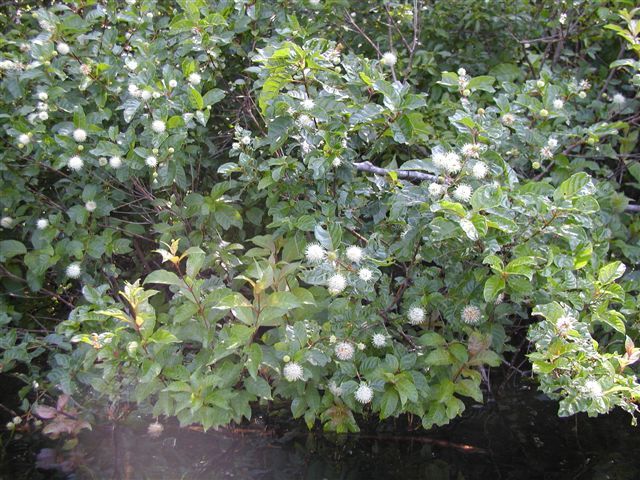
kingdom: Plantae
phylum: Tracheophyta
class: Magnoliopsida
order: Gentianales
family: Rubiaceae
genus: Cephalanthus
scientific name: Cephalanthus occidentalis
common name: Button-willow
